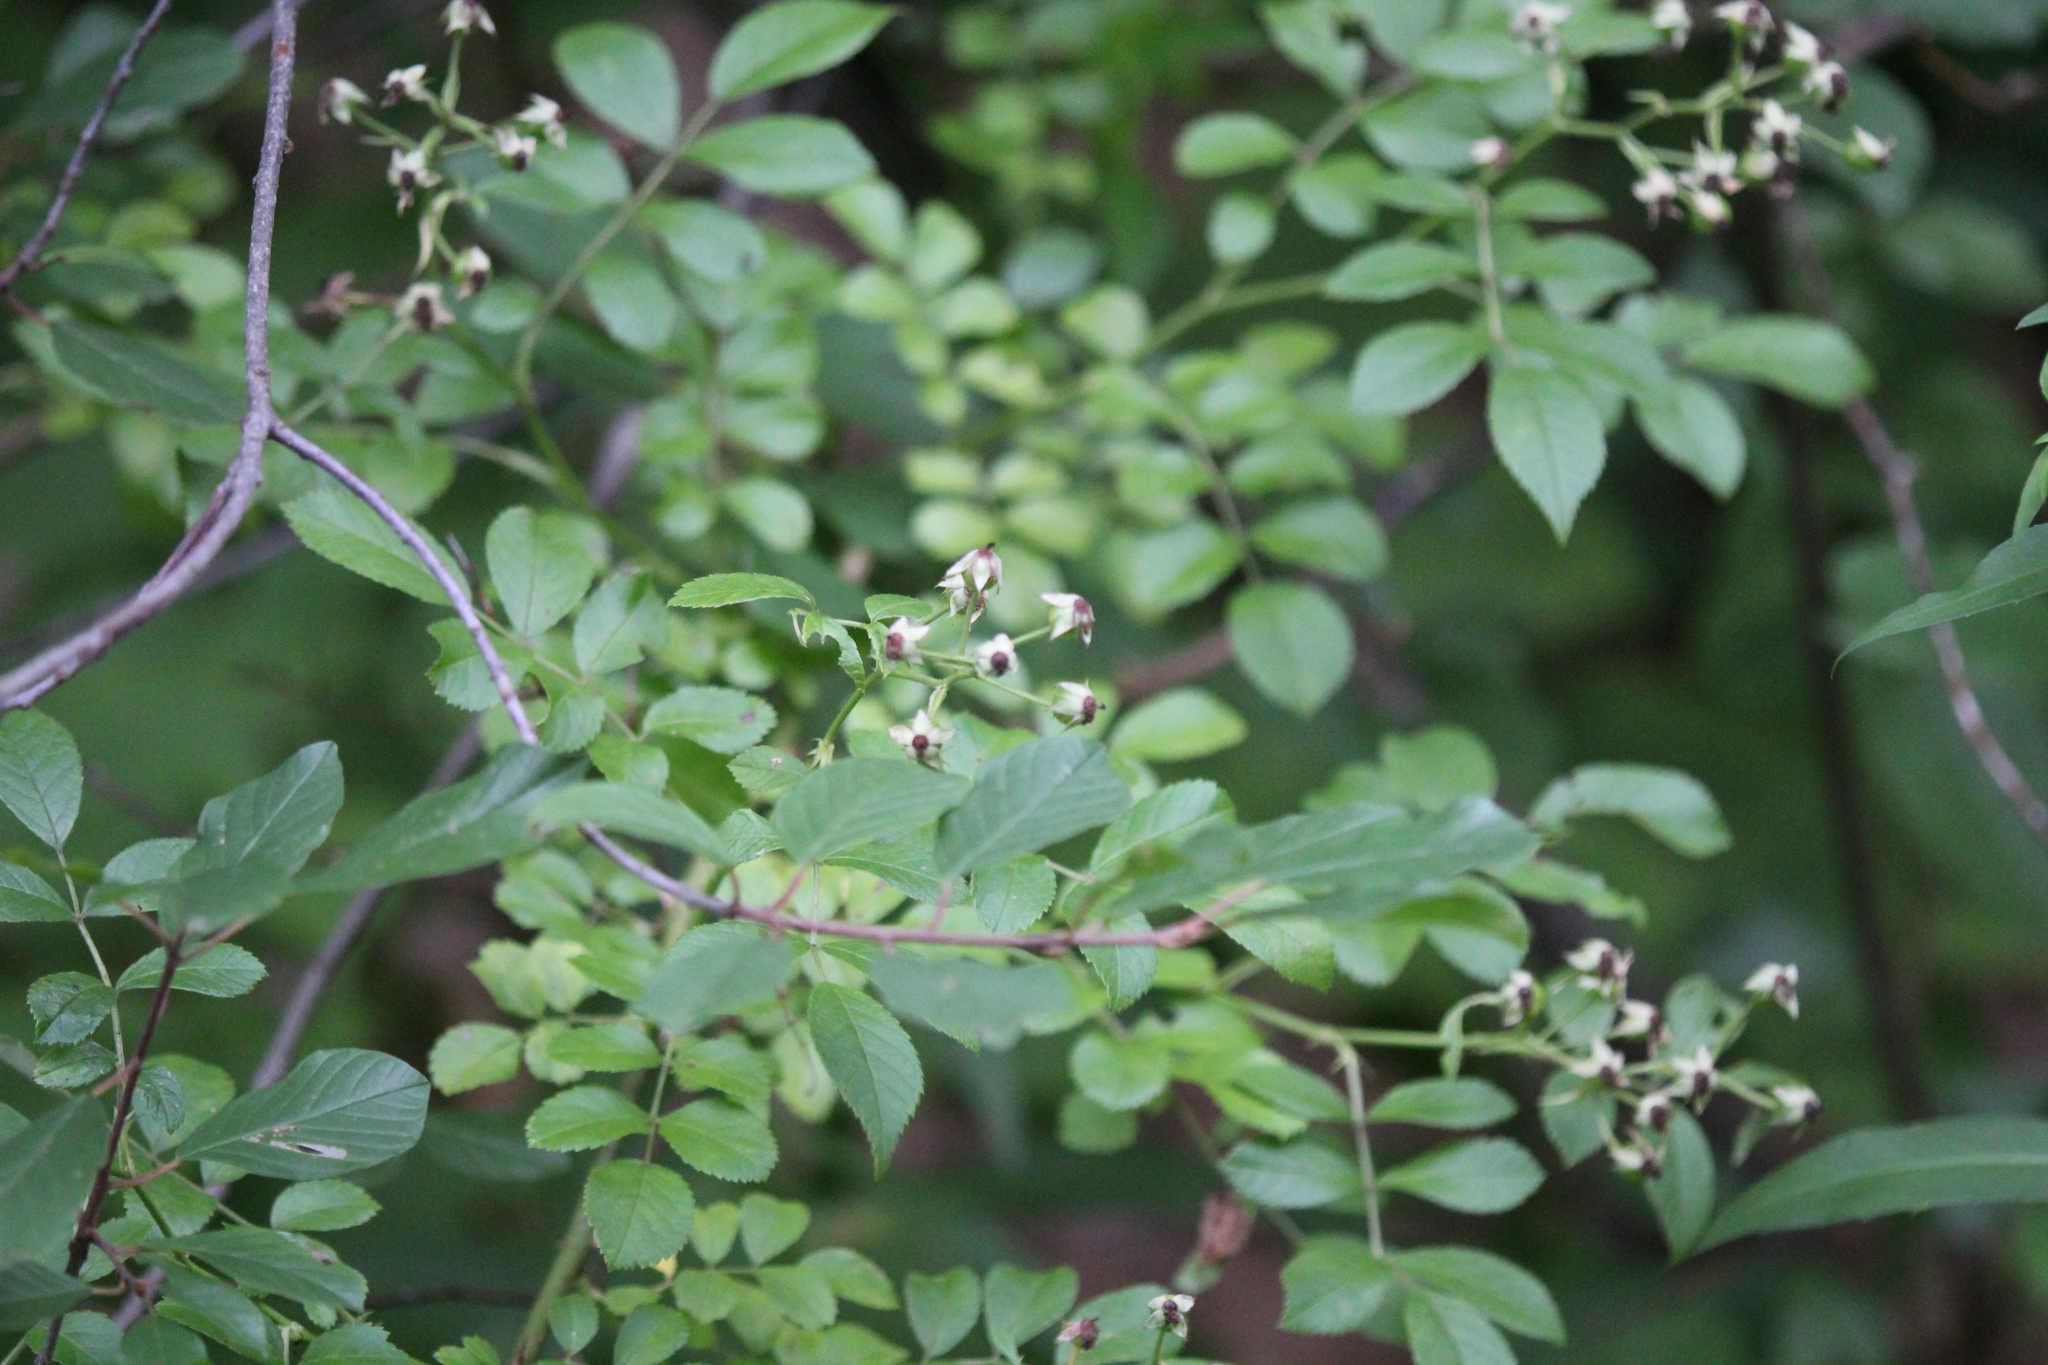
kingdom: Plantae
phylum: Tracheophyta
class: Magnoliopsida
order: Rosales
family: Rosaceae
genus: Rosa
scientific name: Rosa multiflora
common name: Multiflora rose
